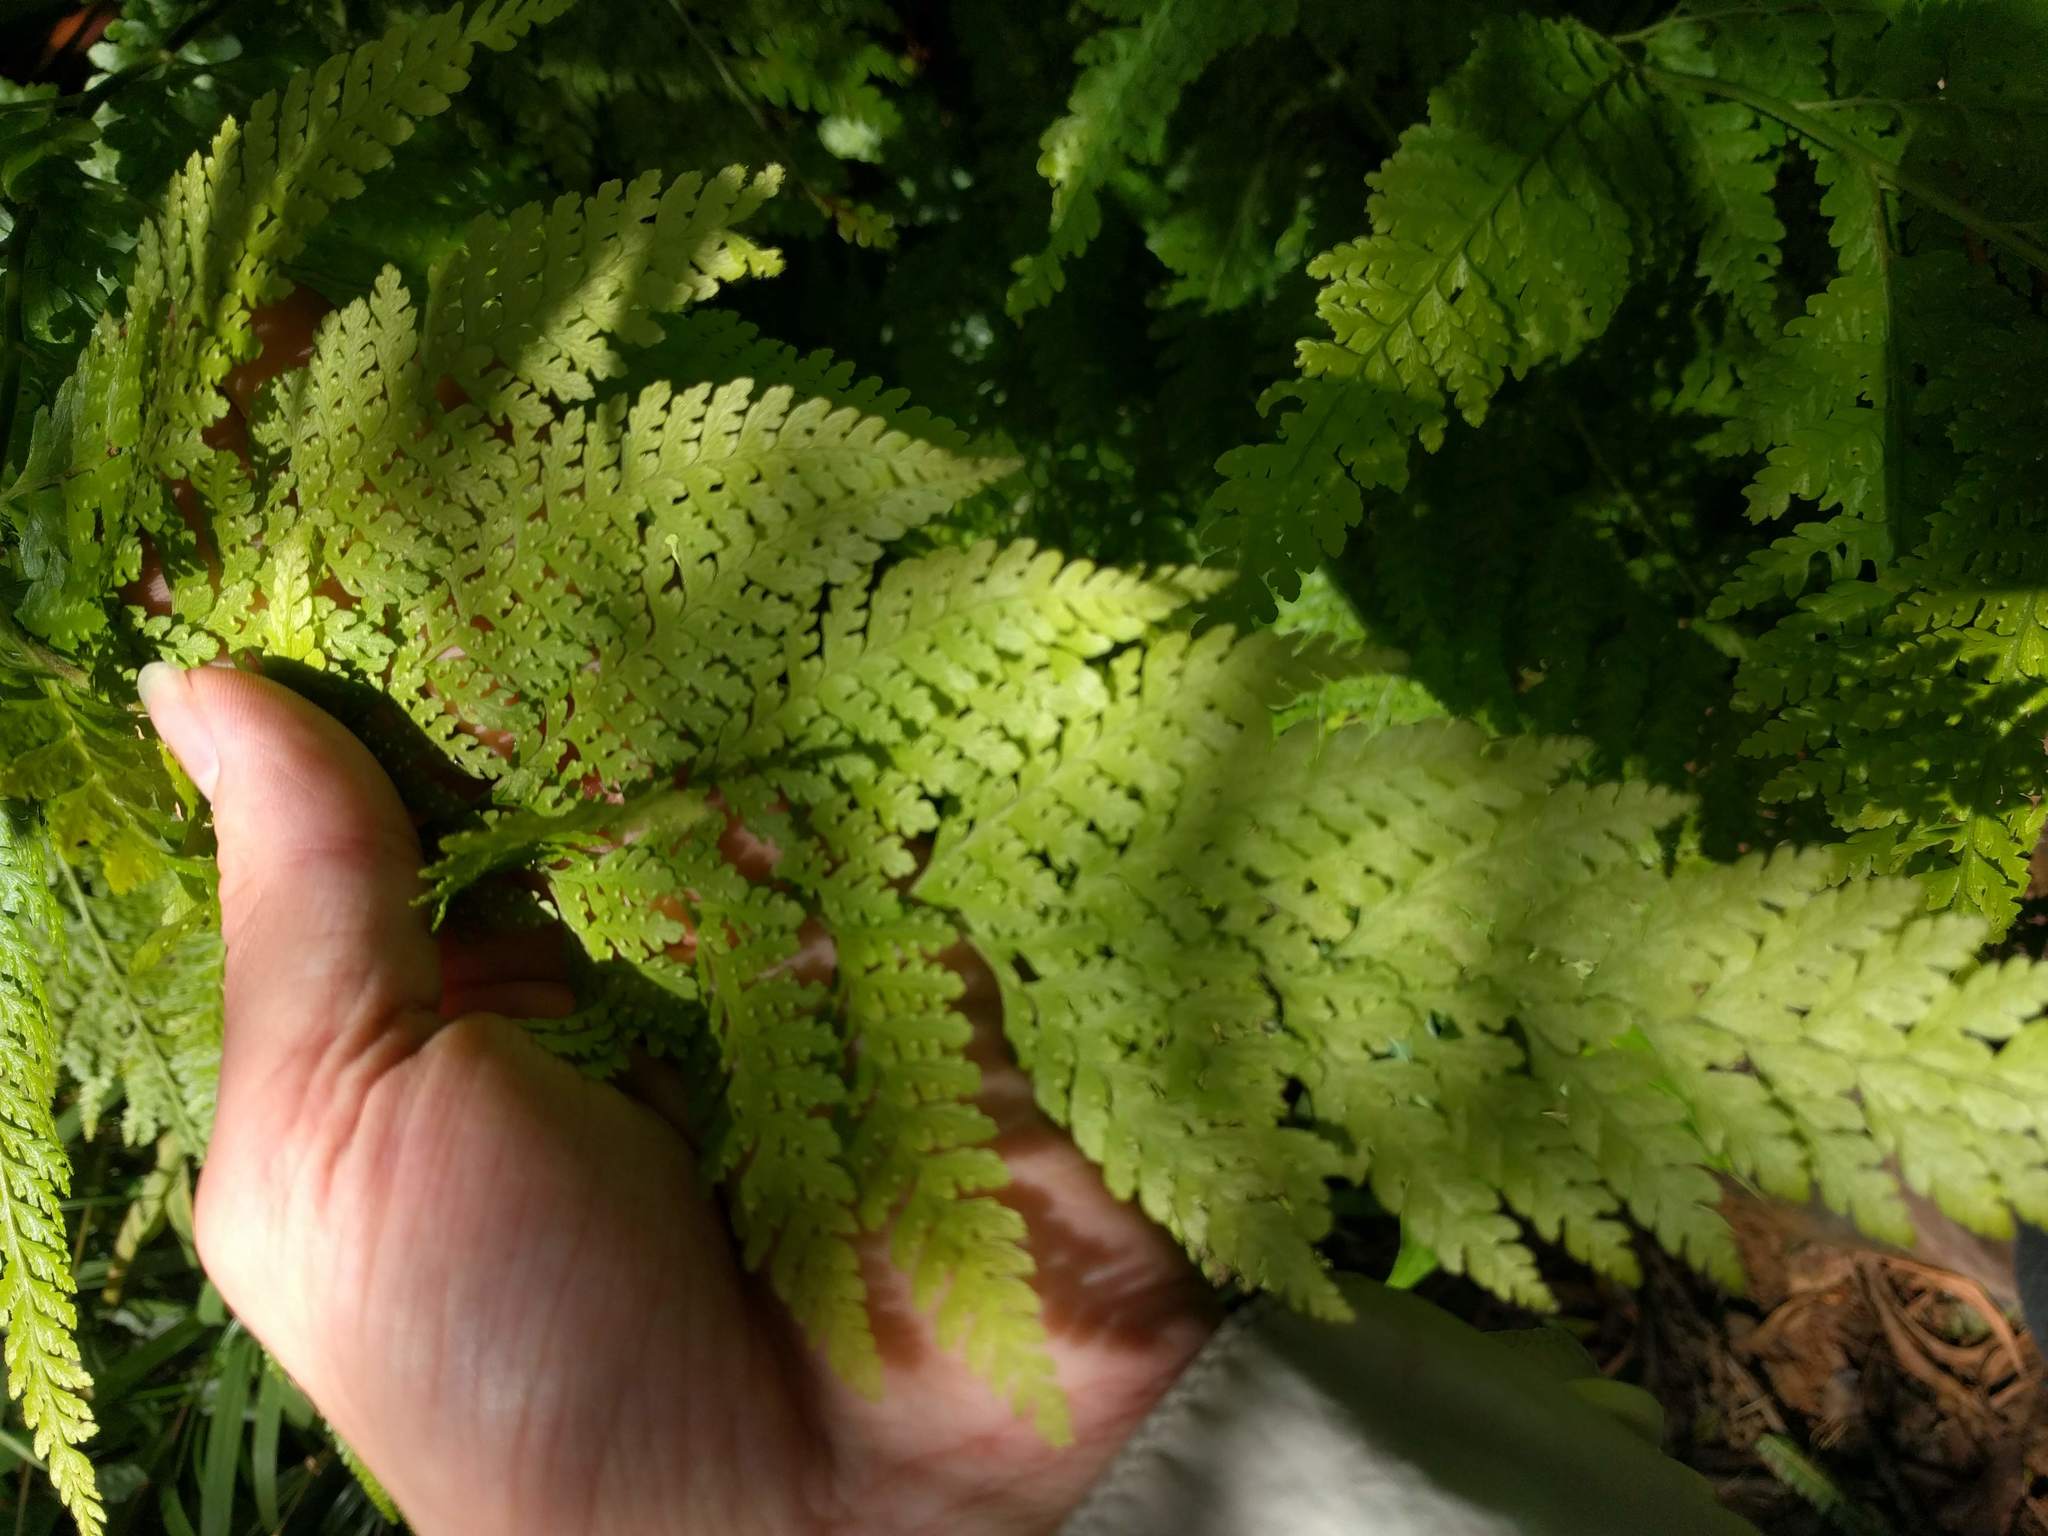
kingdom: Plantae
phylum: Tracheophyta
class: Polypodiopsida
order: Polypodiales
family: Dennstaedtiaceae
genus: Microlepia
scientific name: Microlepia setosa
